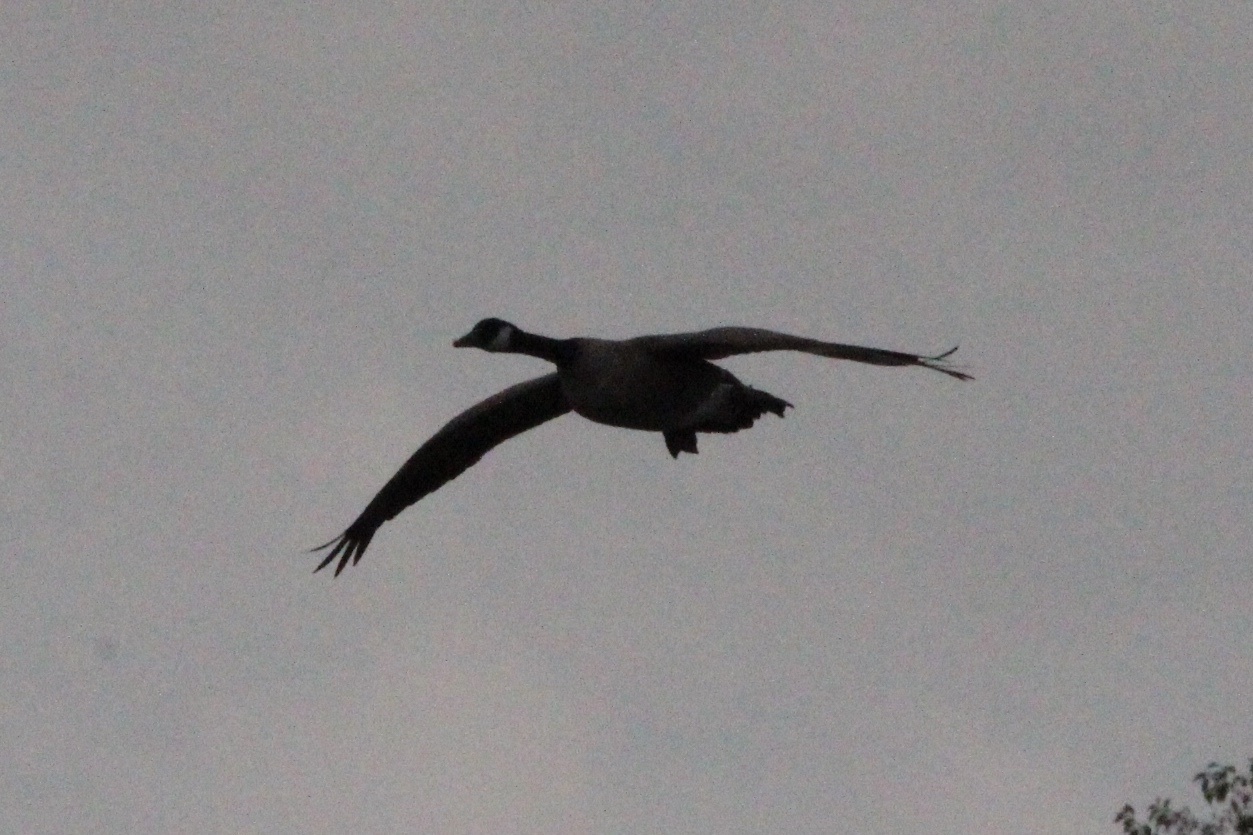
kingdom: Animalia
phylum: Chordata
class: Aves
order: Anseriformes
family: Anatidae
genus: Branta
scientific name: Branta canadensis
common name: Canada goose
